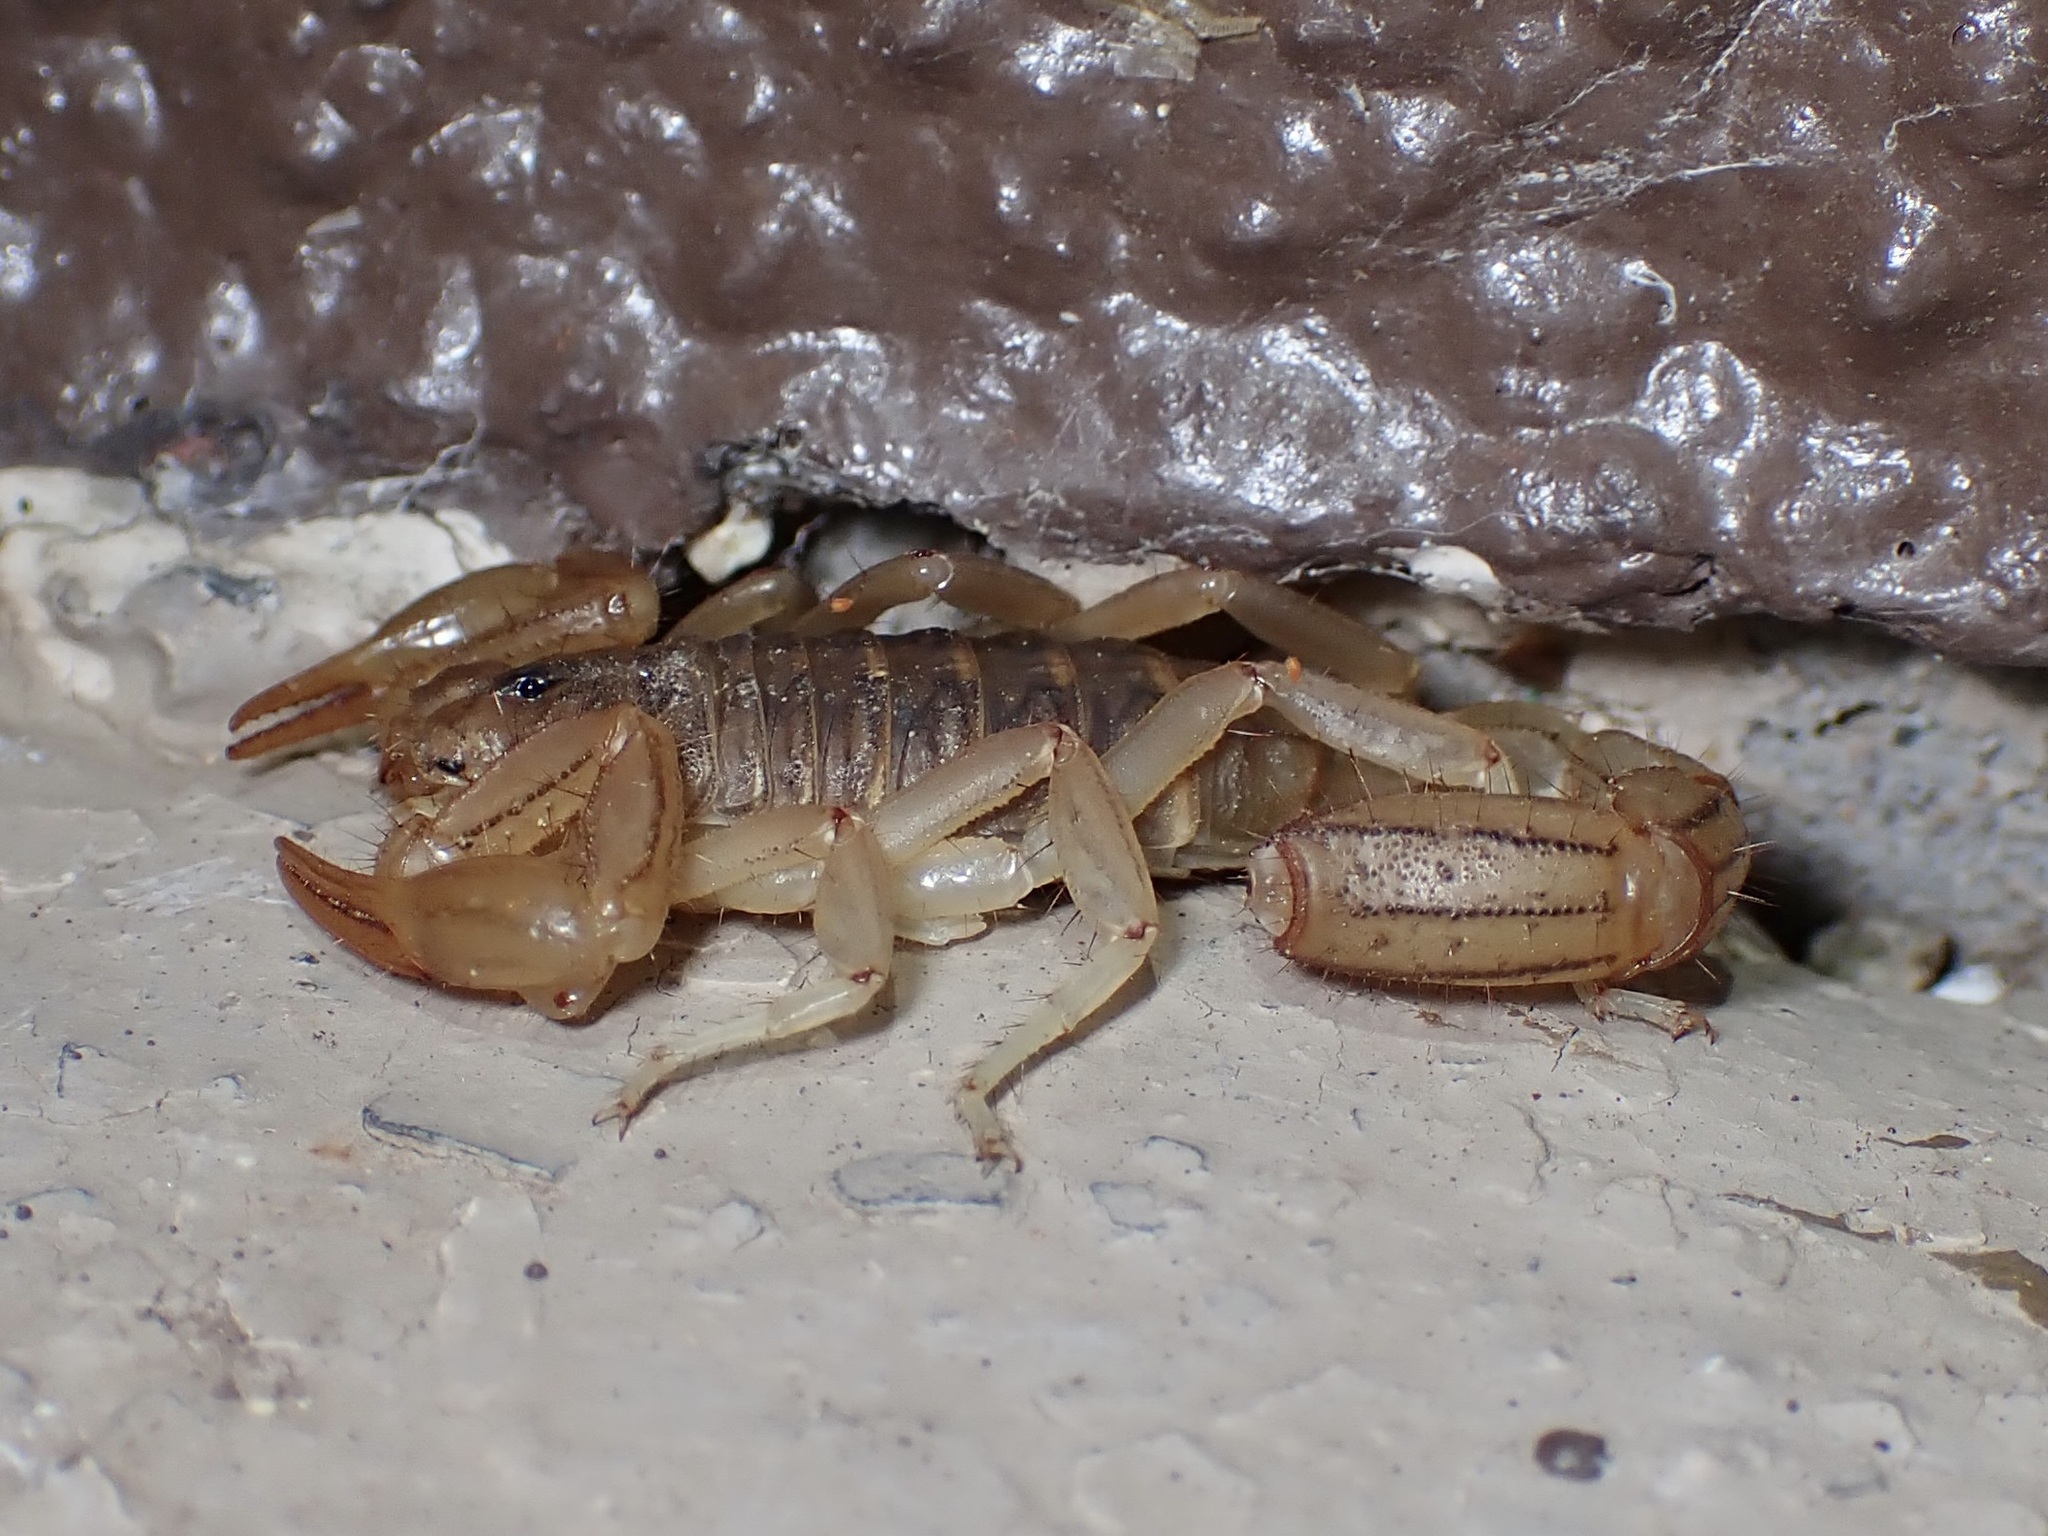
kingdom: Animalia
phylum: Arthropoda
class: Arachnida
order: Scorpiones
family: Vaejovidae
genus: Paravaejovis
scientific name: Paravaejovis spinigerus
